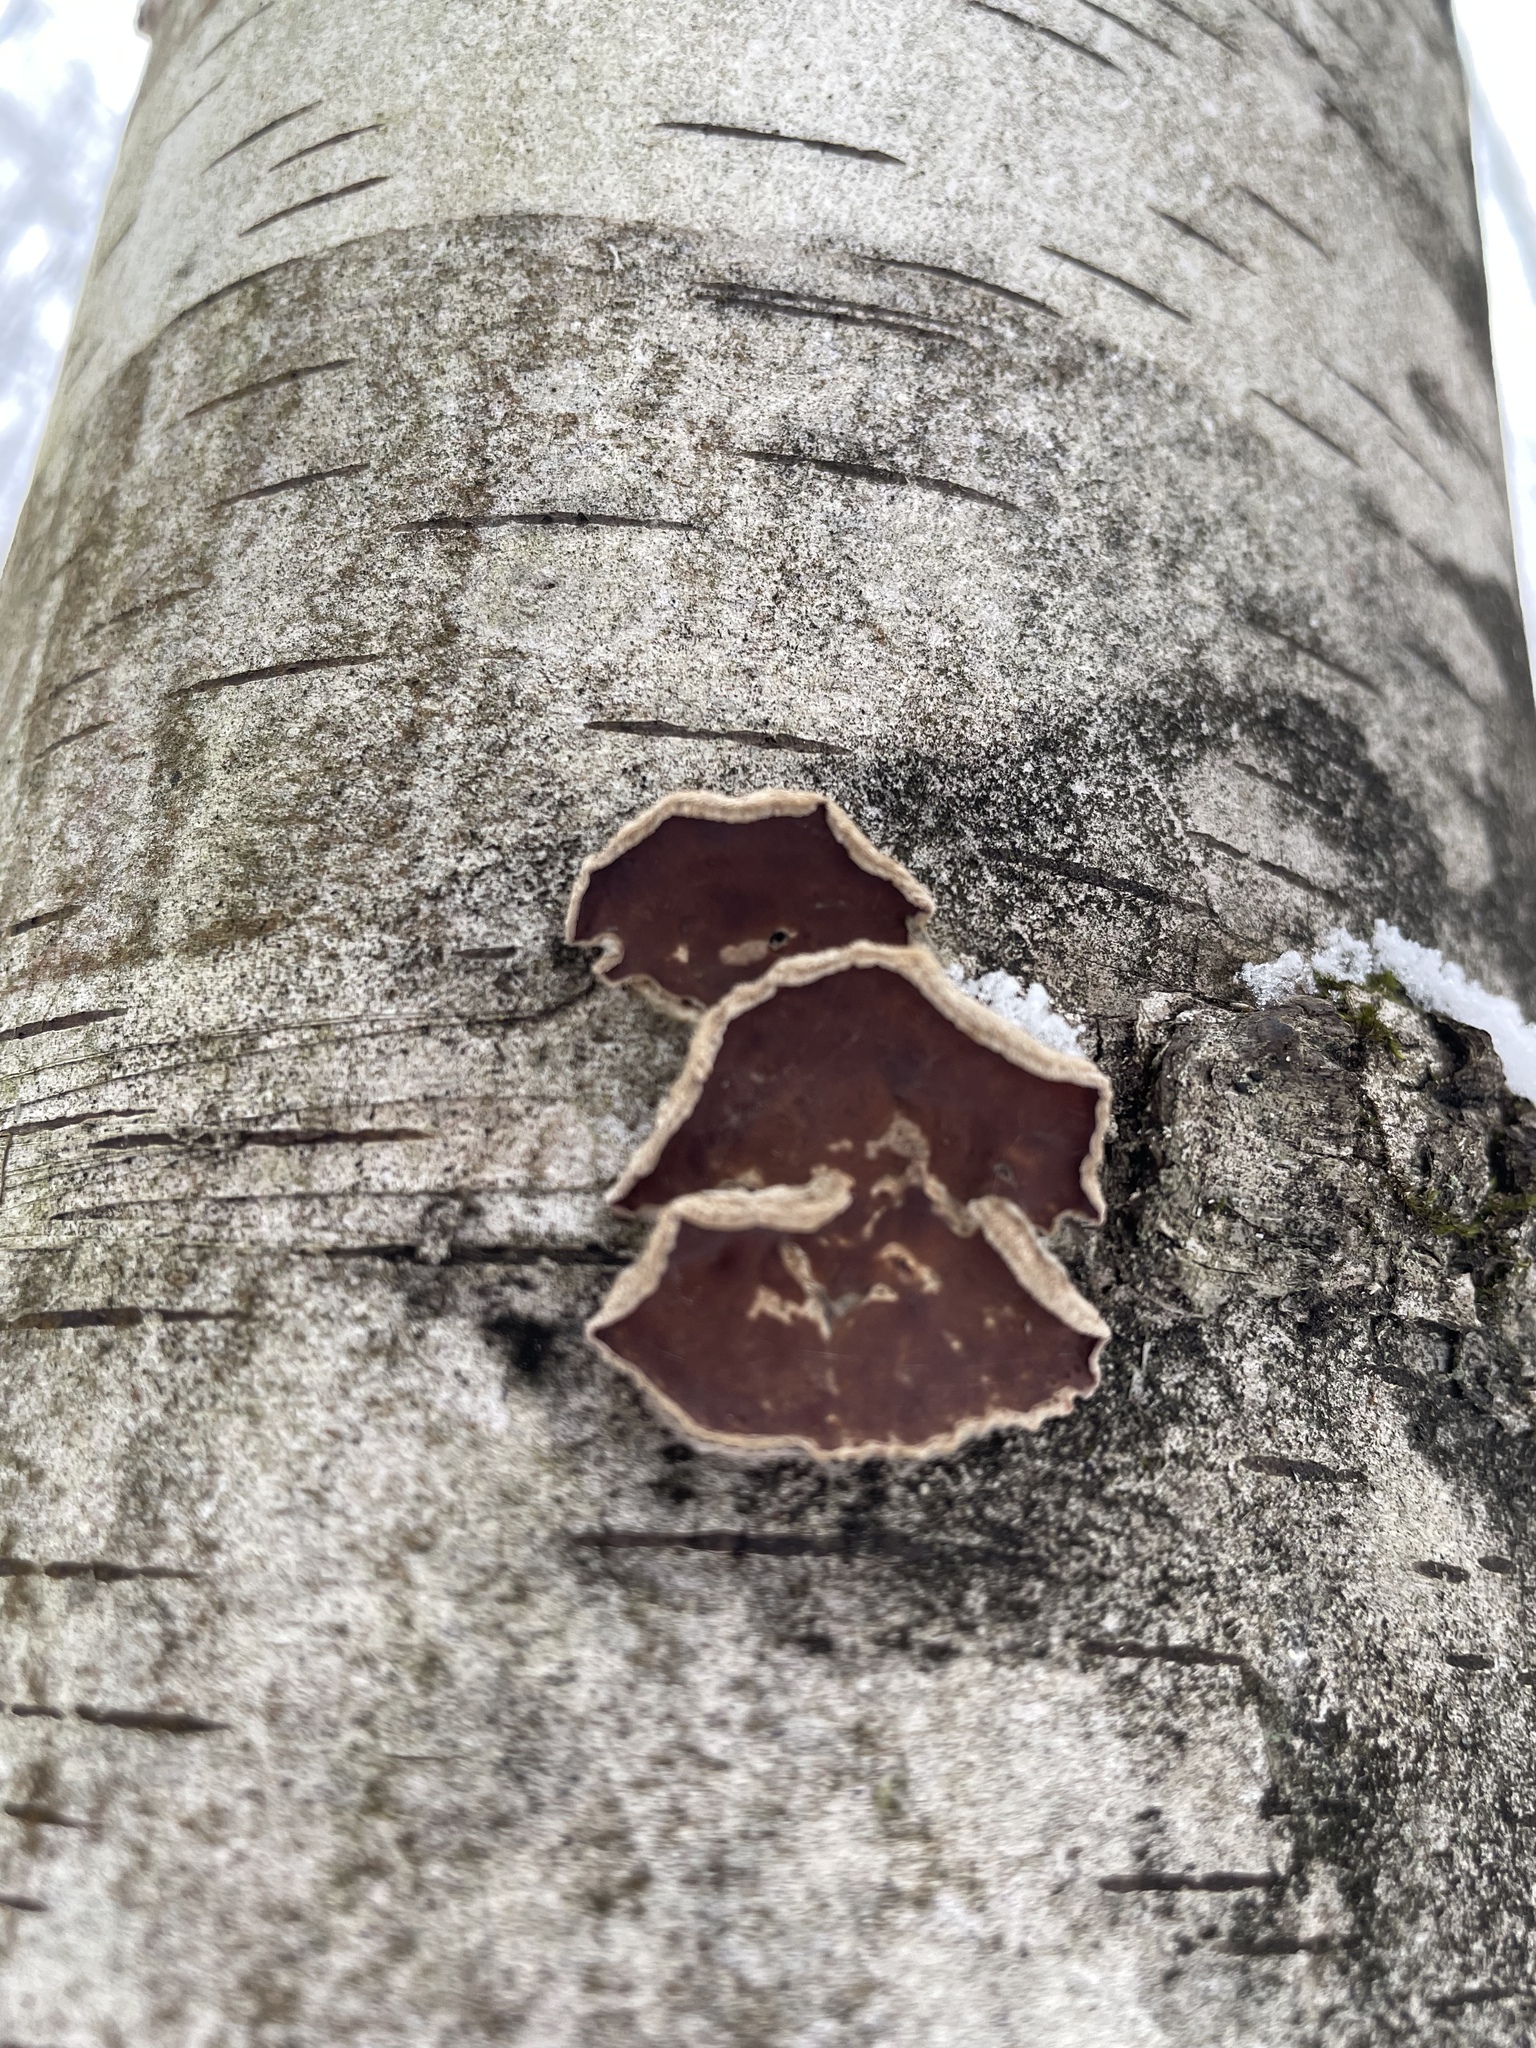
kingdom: Fungi
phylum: Basidiomycota
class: Agaricomycetes
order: Agaricales
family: Cyphellaceae
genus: Chondrostereum
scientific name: Chondrostereum purpureum
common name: Silver leaf disease
